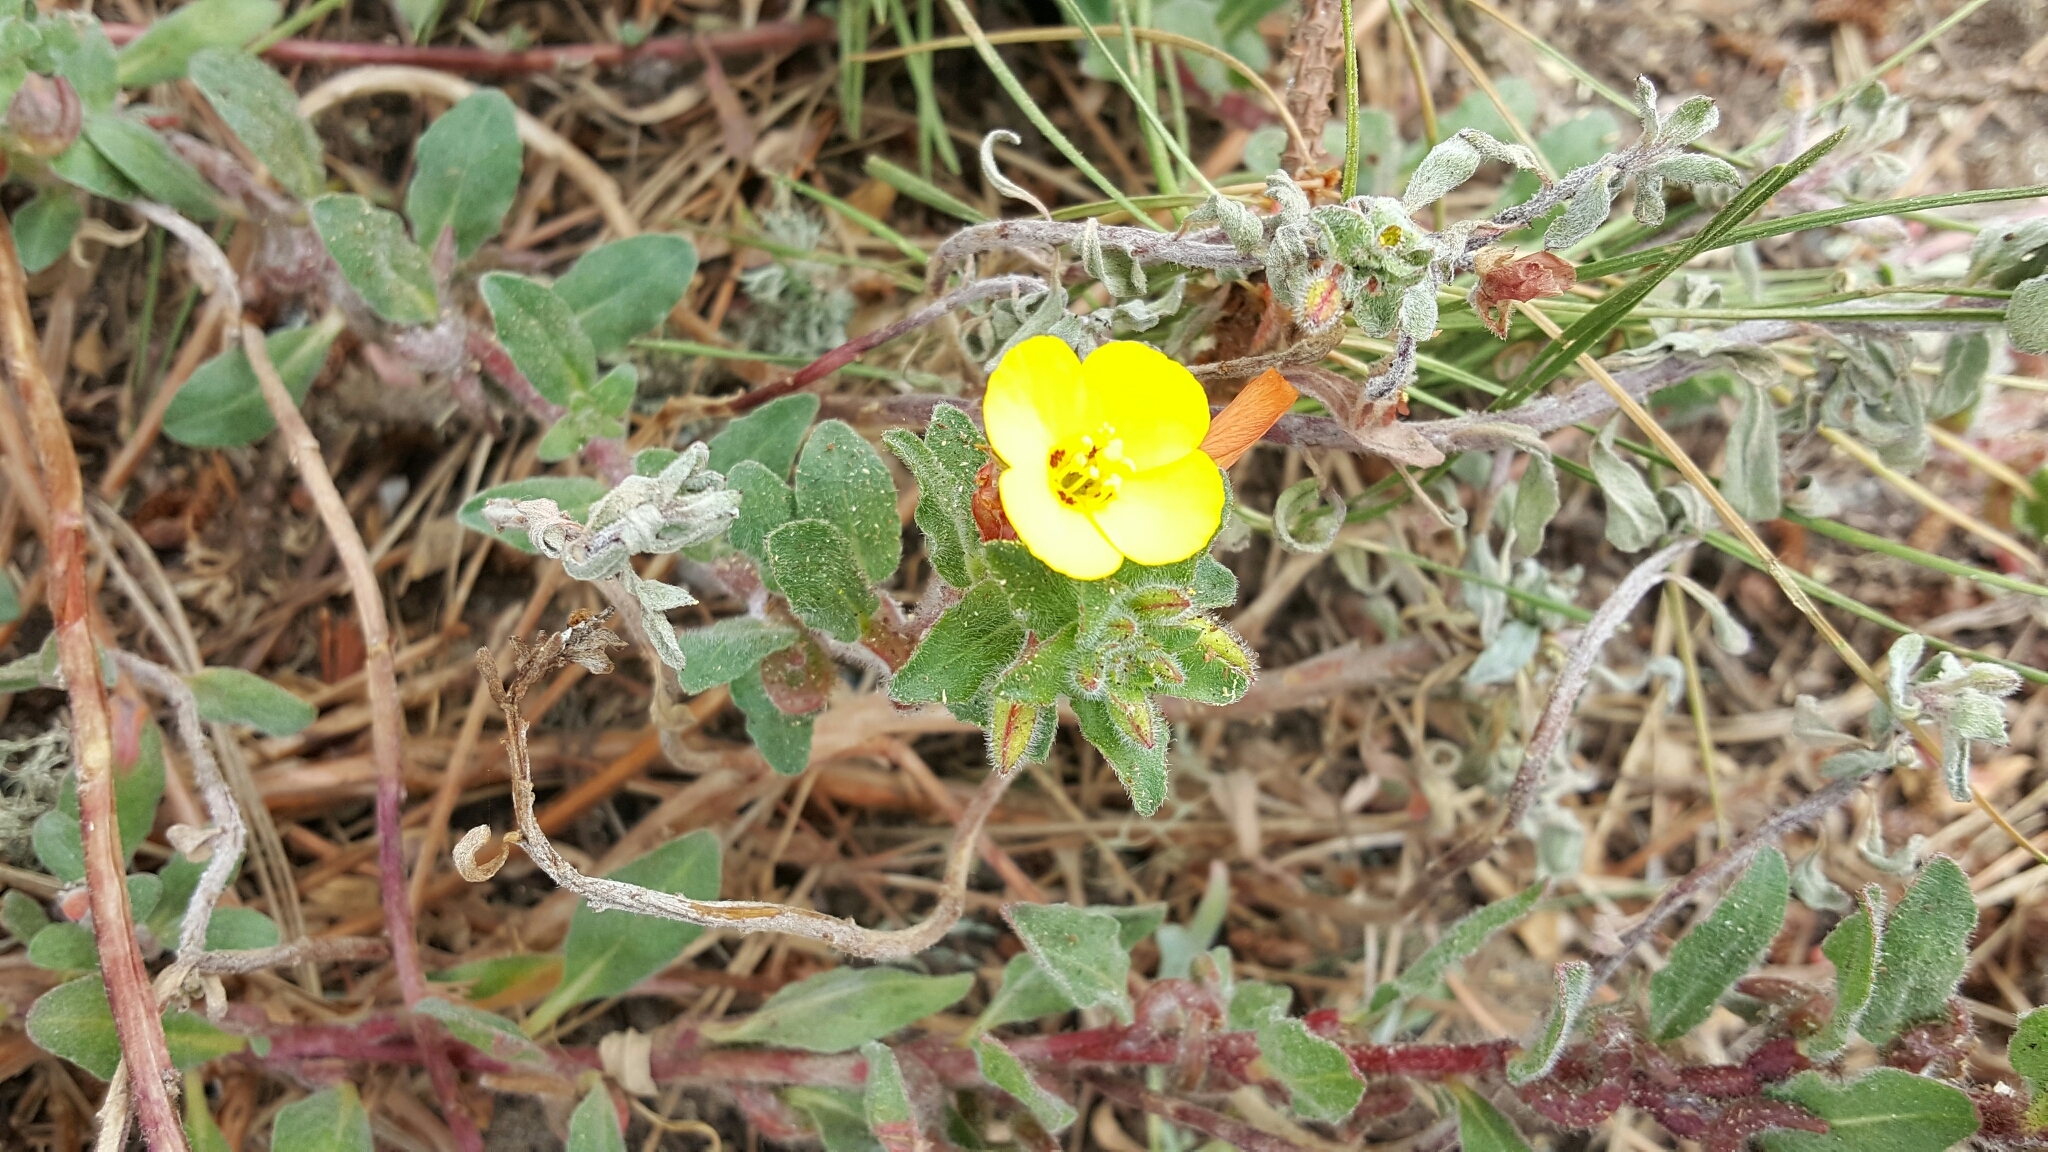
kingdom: Plantae
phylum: Tracheophyta
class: Magnoliopsida
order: Myrtales
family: Onagraceae
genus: Camissoniopsis
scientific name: Camissoniopsis cheiranthifolia
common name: Beach suncup
